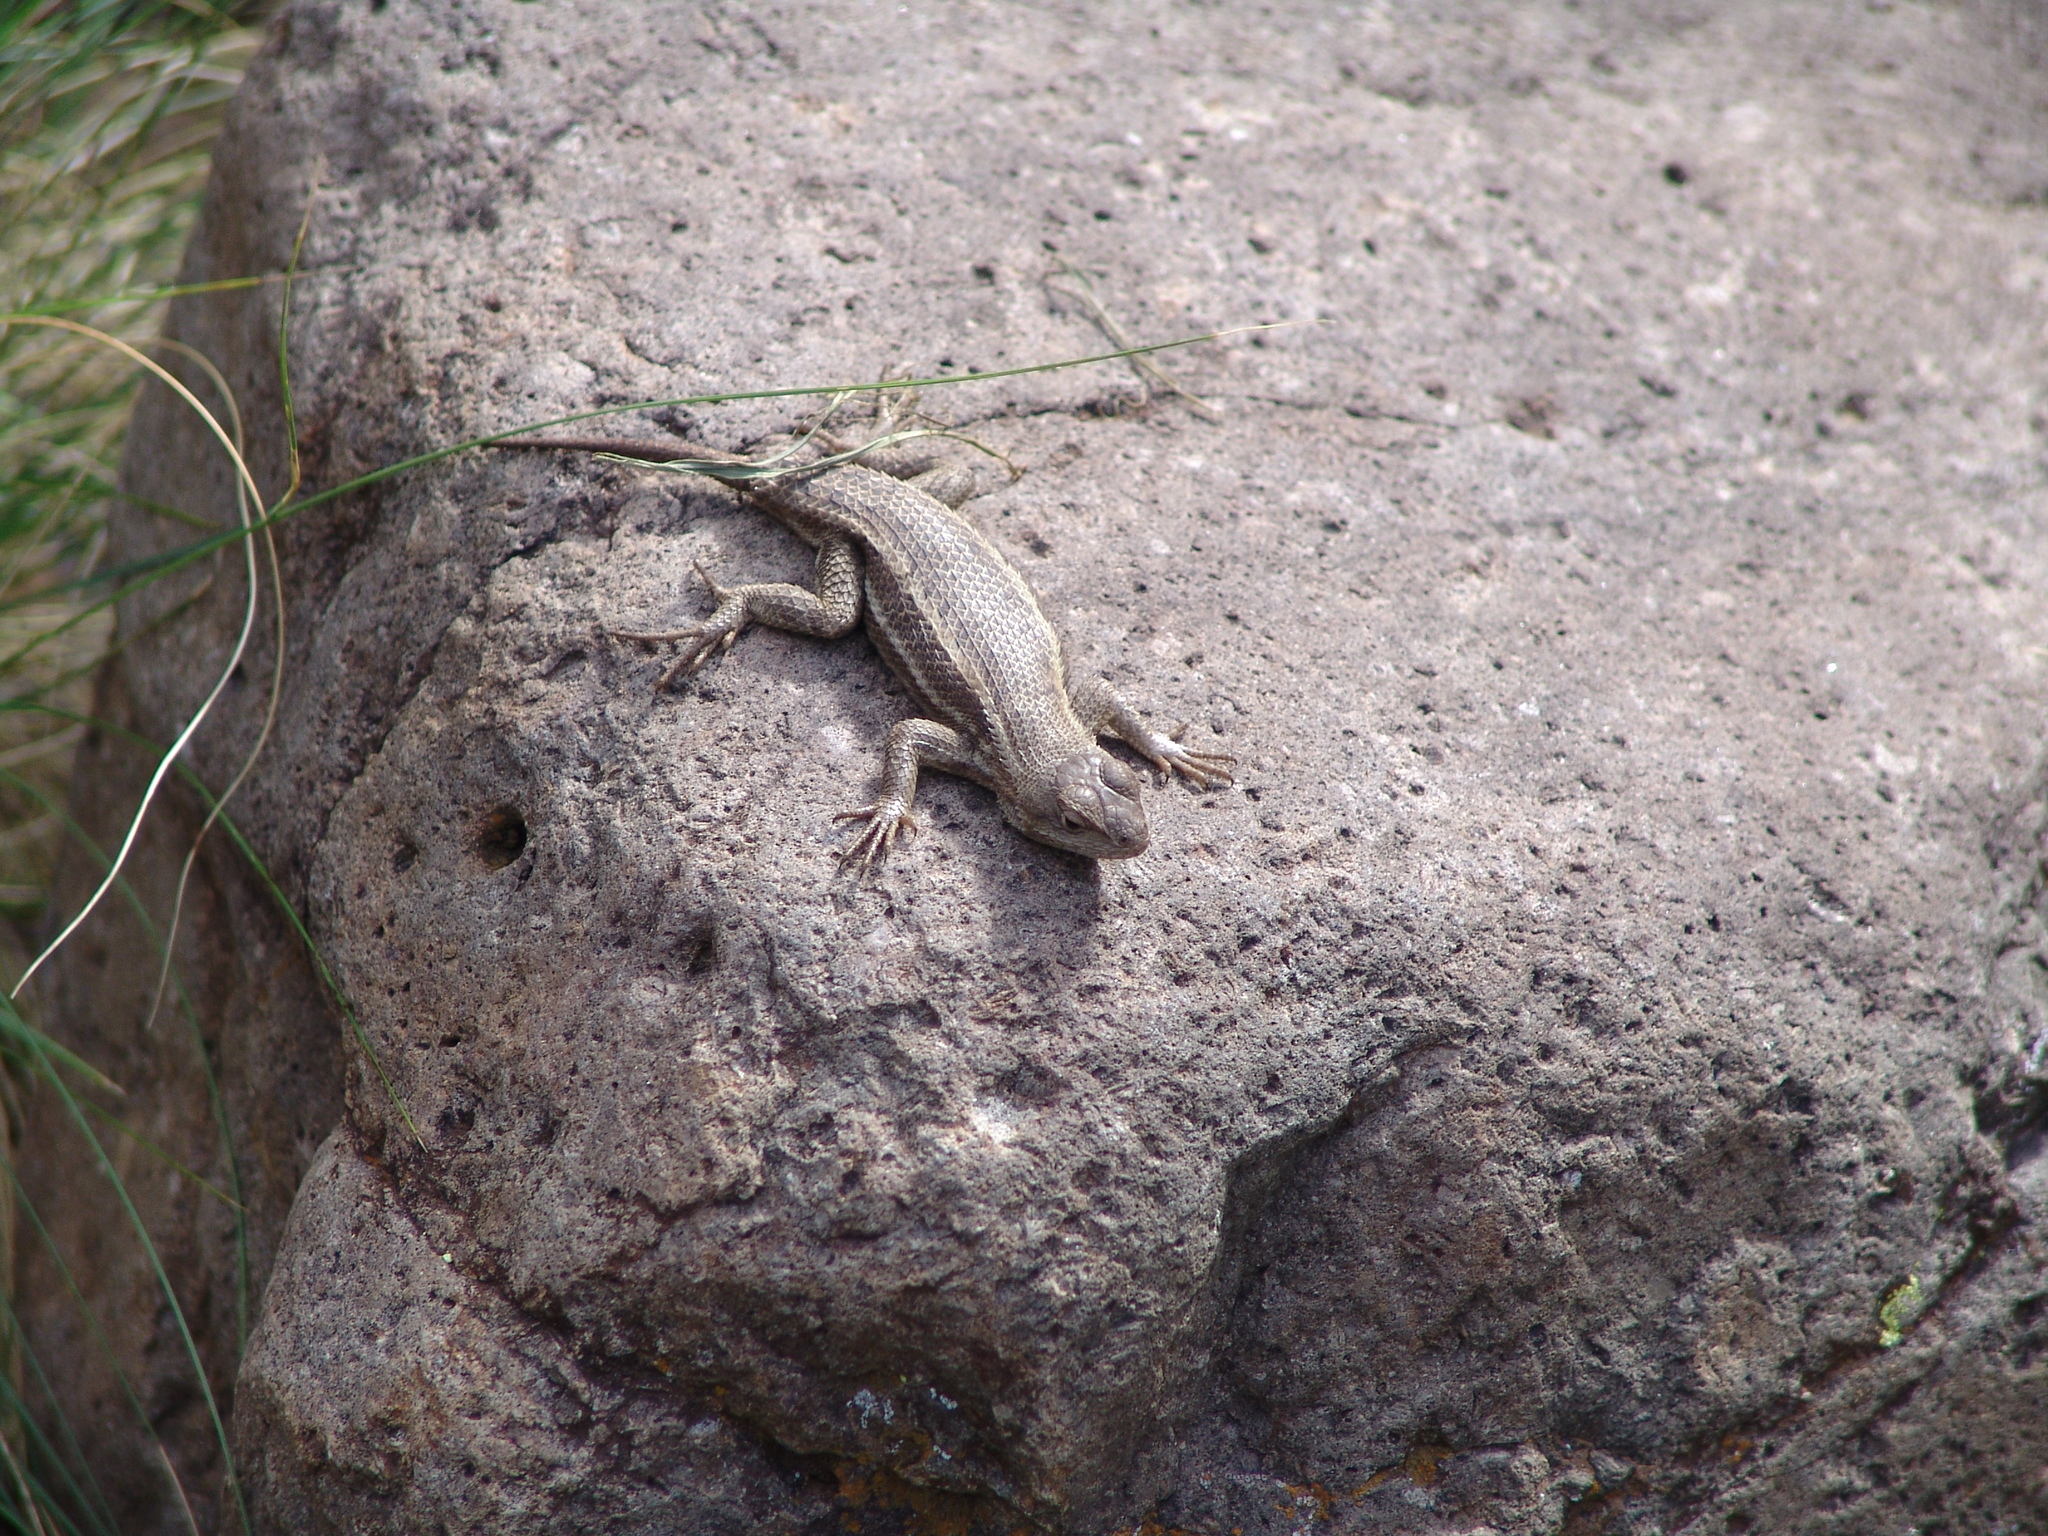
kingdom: Animalia
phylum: Chordata
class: Squamata
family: Phrynosomatidae
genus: Sceloporus
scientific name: Sceloporus virgatus
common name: Striped plateau lizard
